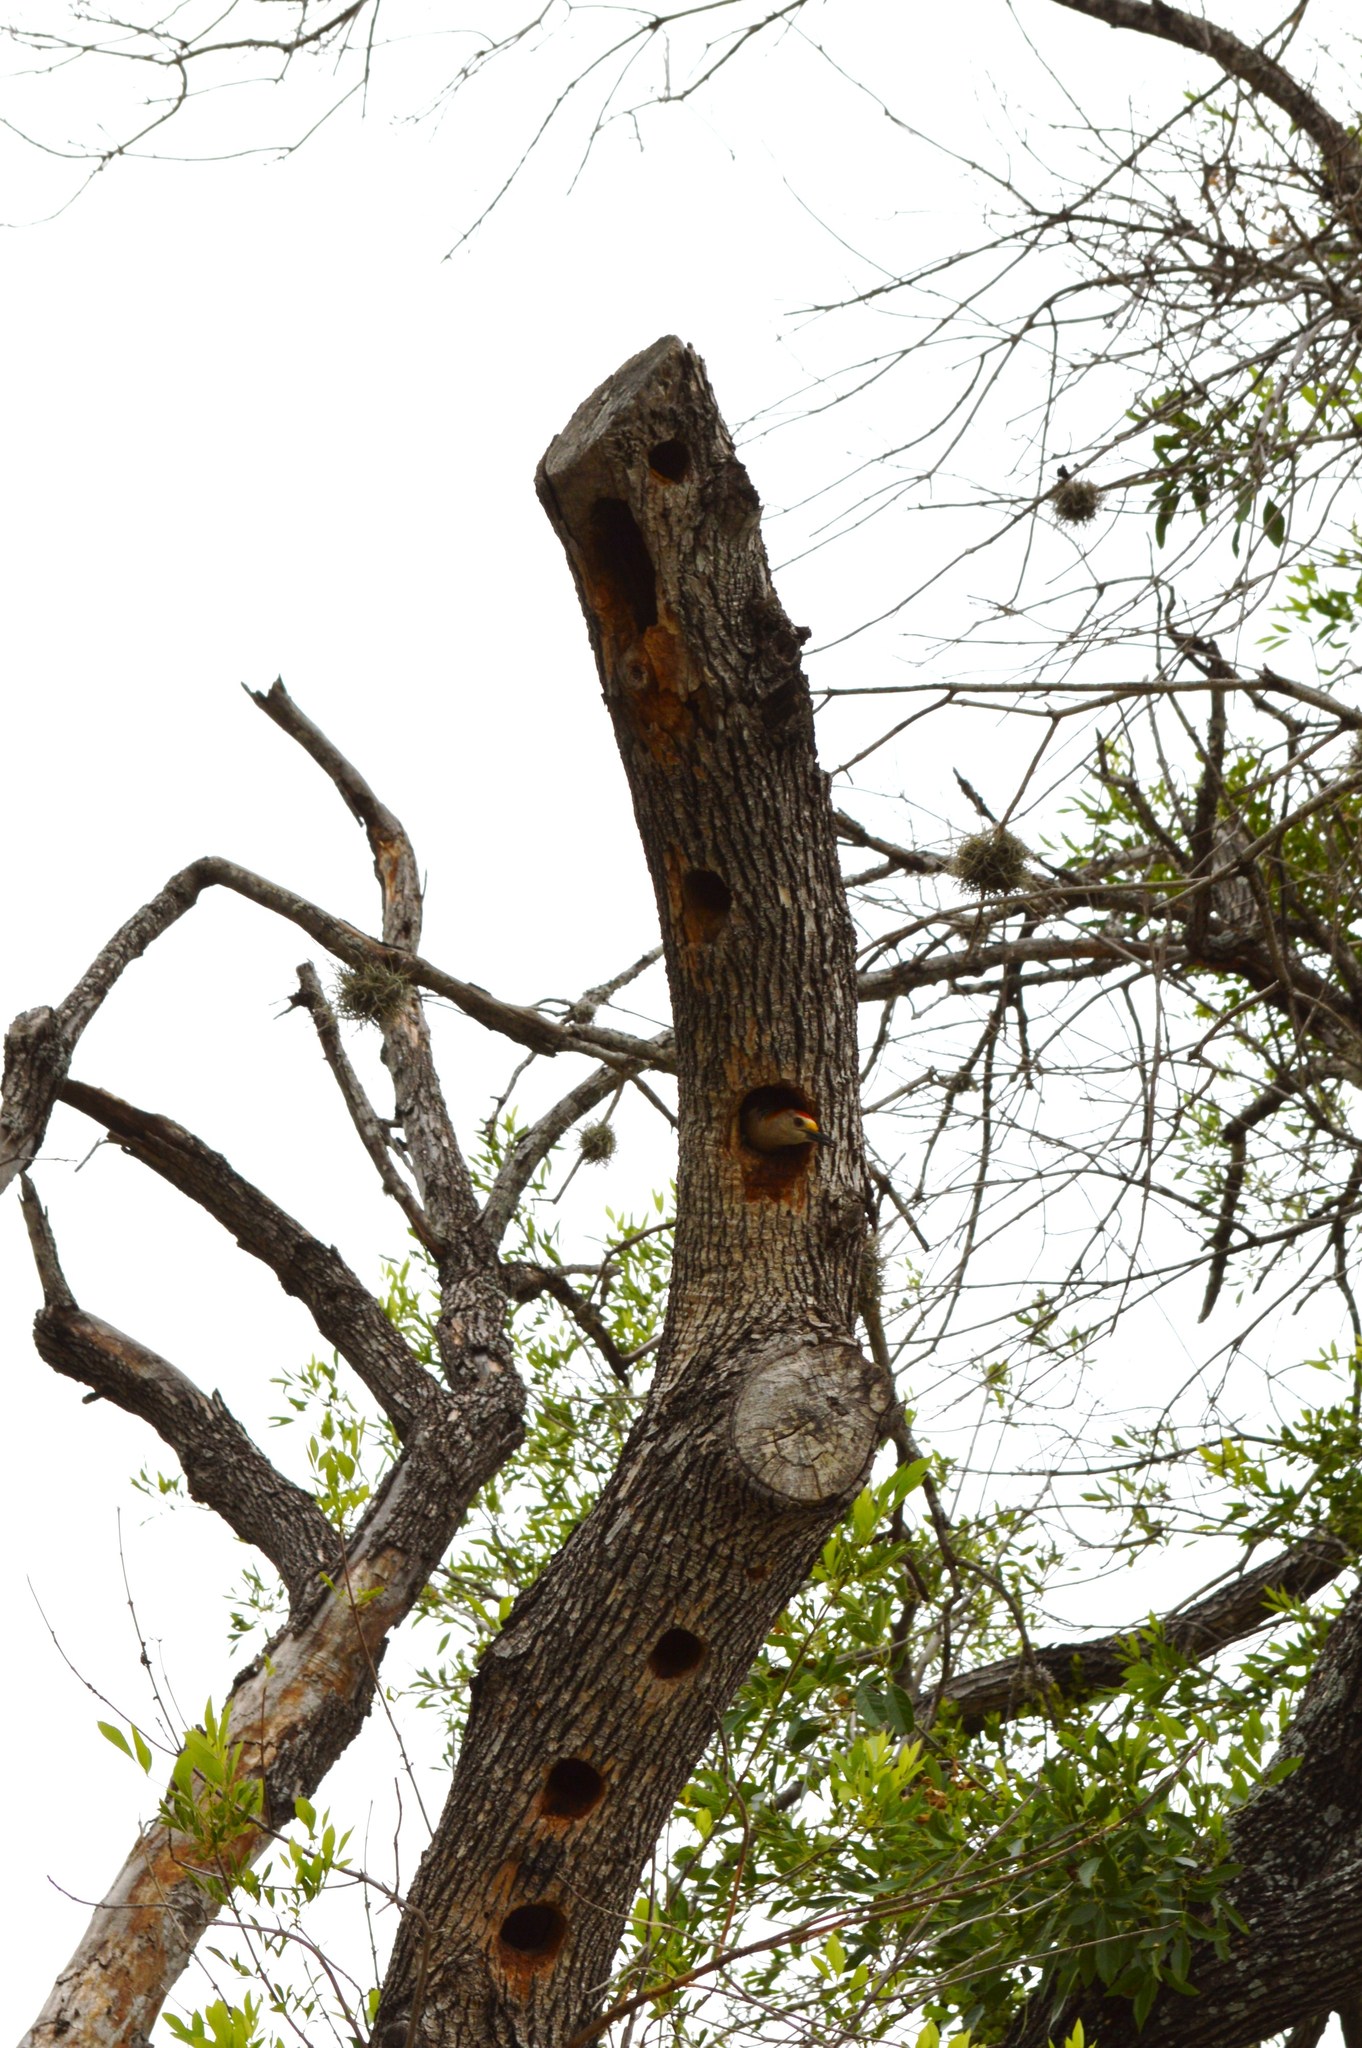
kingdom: Animalia
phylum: Chordata
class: Aves
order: Piciformes
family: Picidae
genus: Melanerpes
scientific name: Melanerpes aurifrons
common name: Golden-fronted woodpecker
